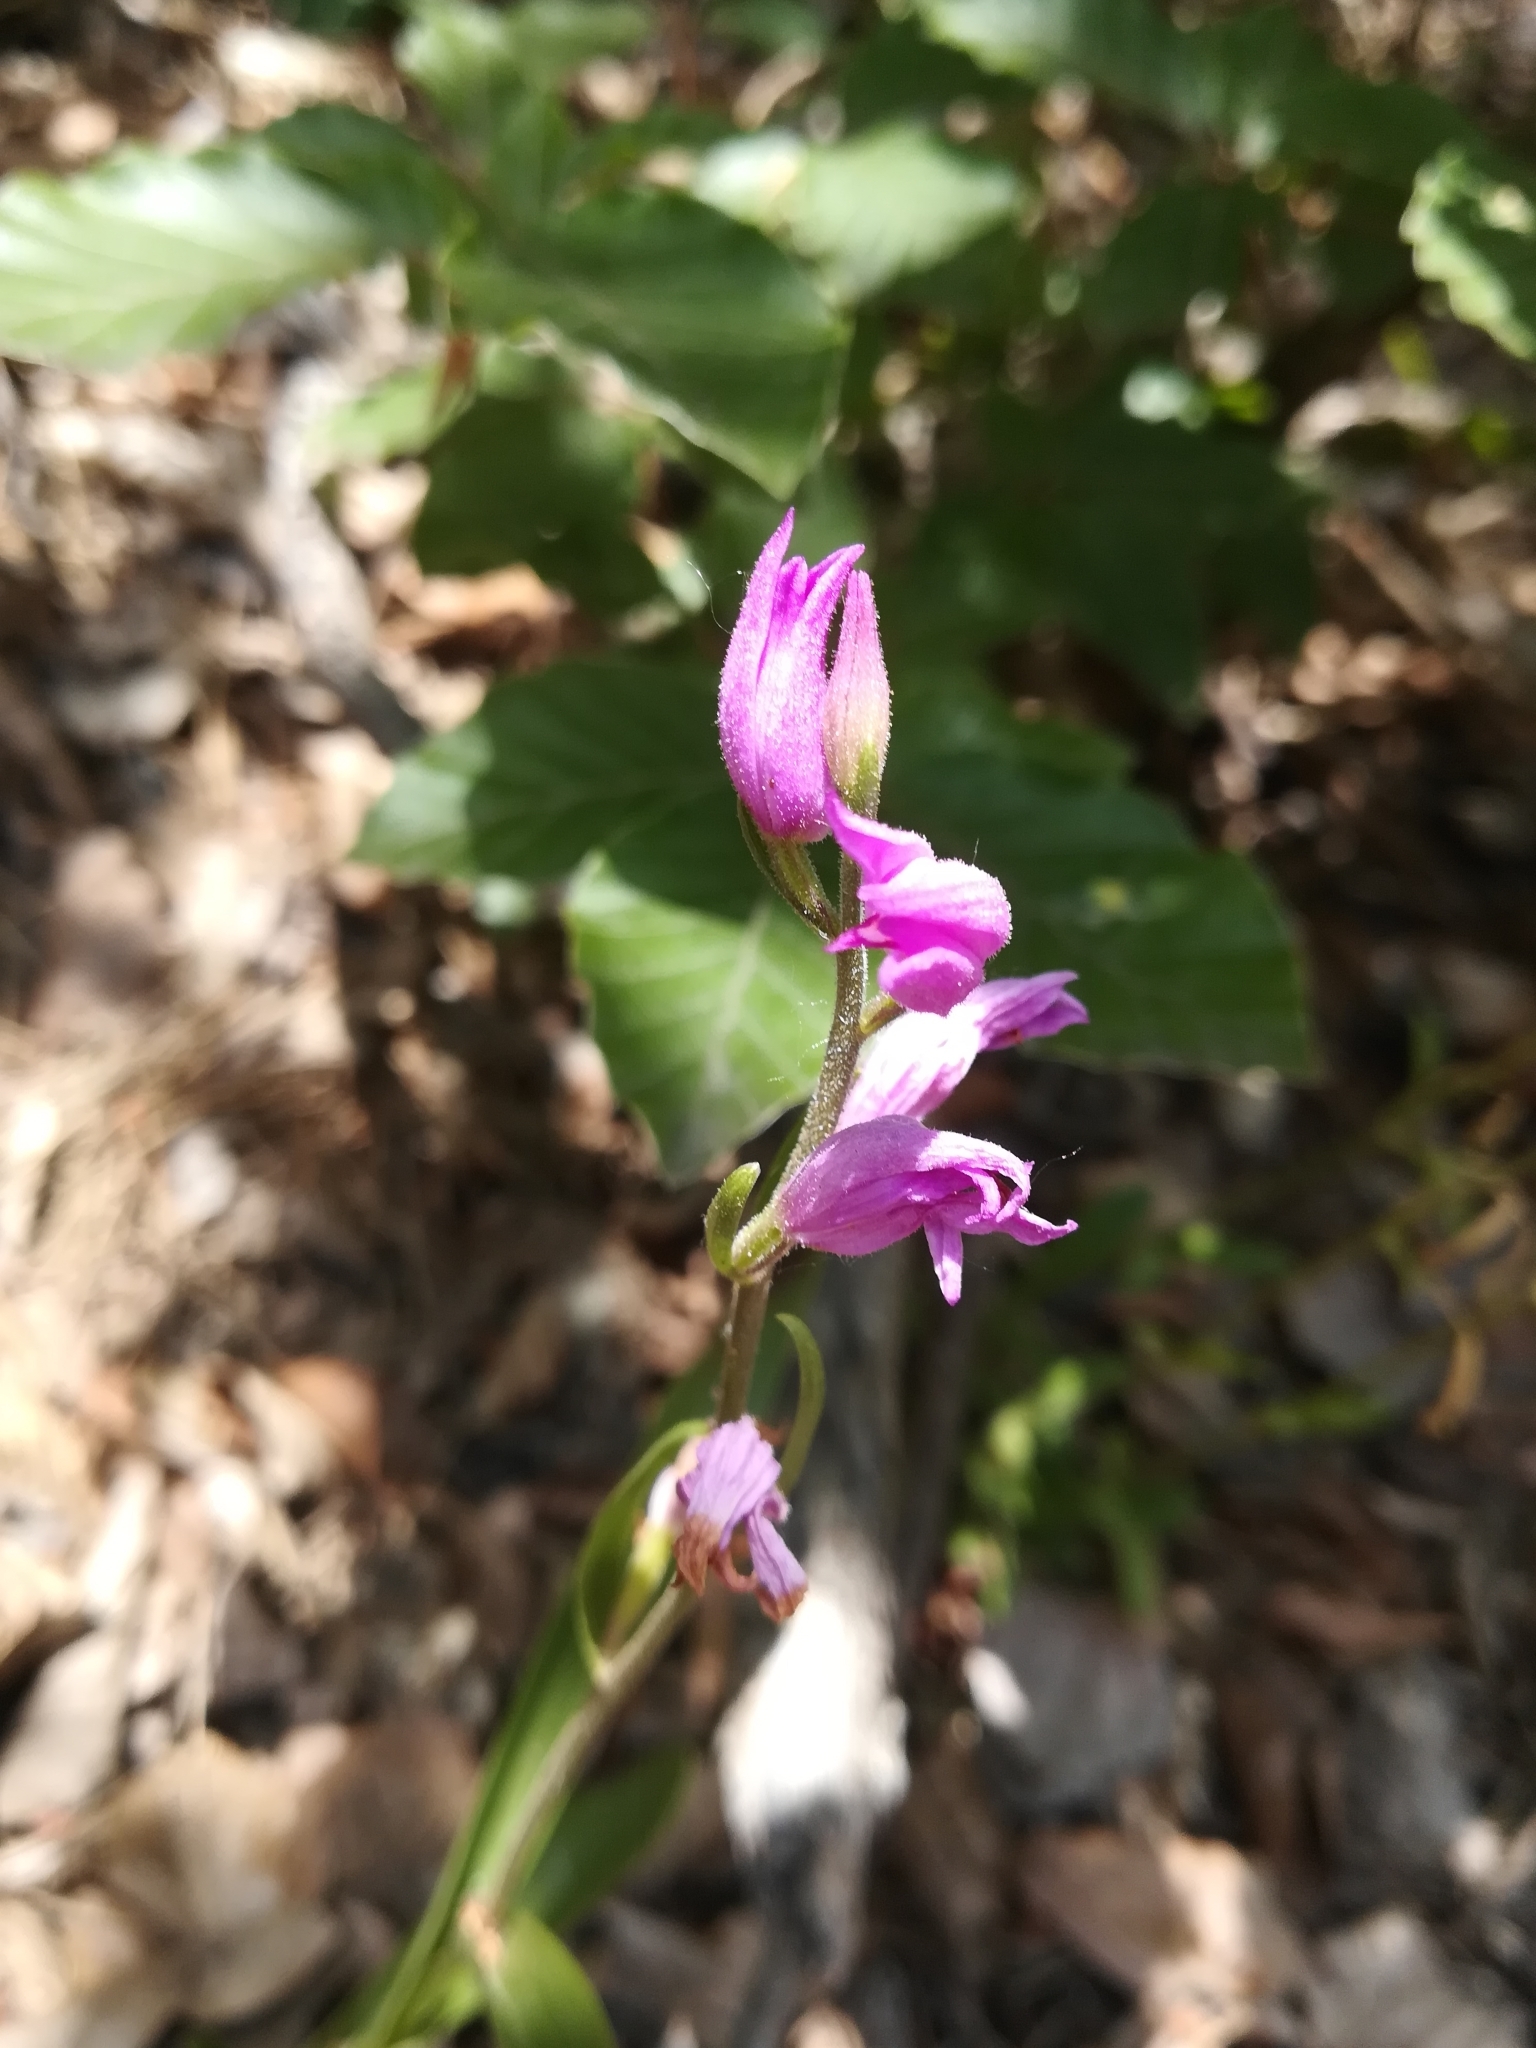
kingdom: Plantae
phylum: Tracheophyta
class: Liliopsida
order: Asparagales
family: Orchidaceae
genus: Cephalanthera
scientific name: Cephalanthera rubra
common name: Red helleborine
